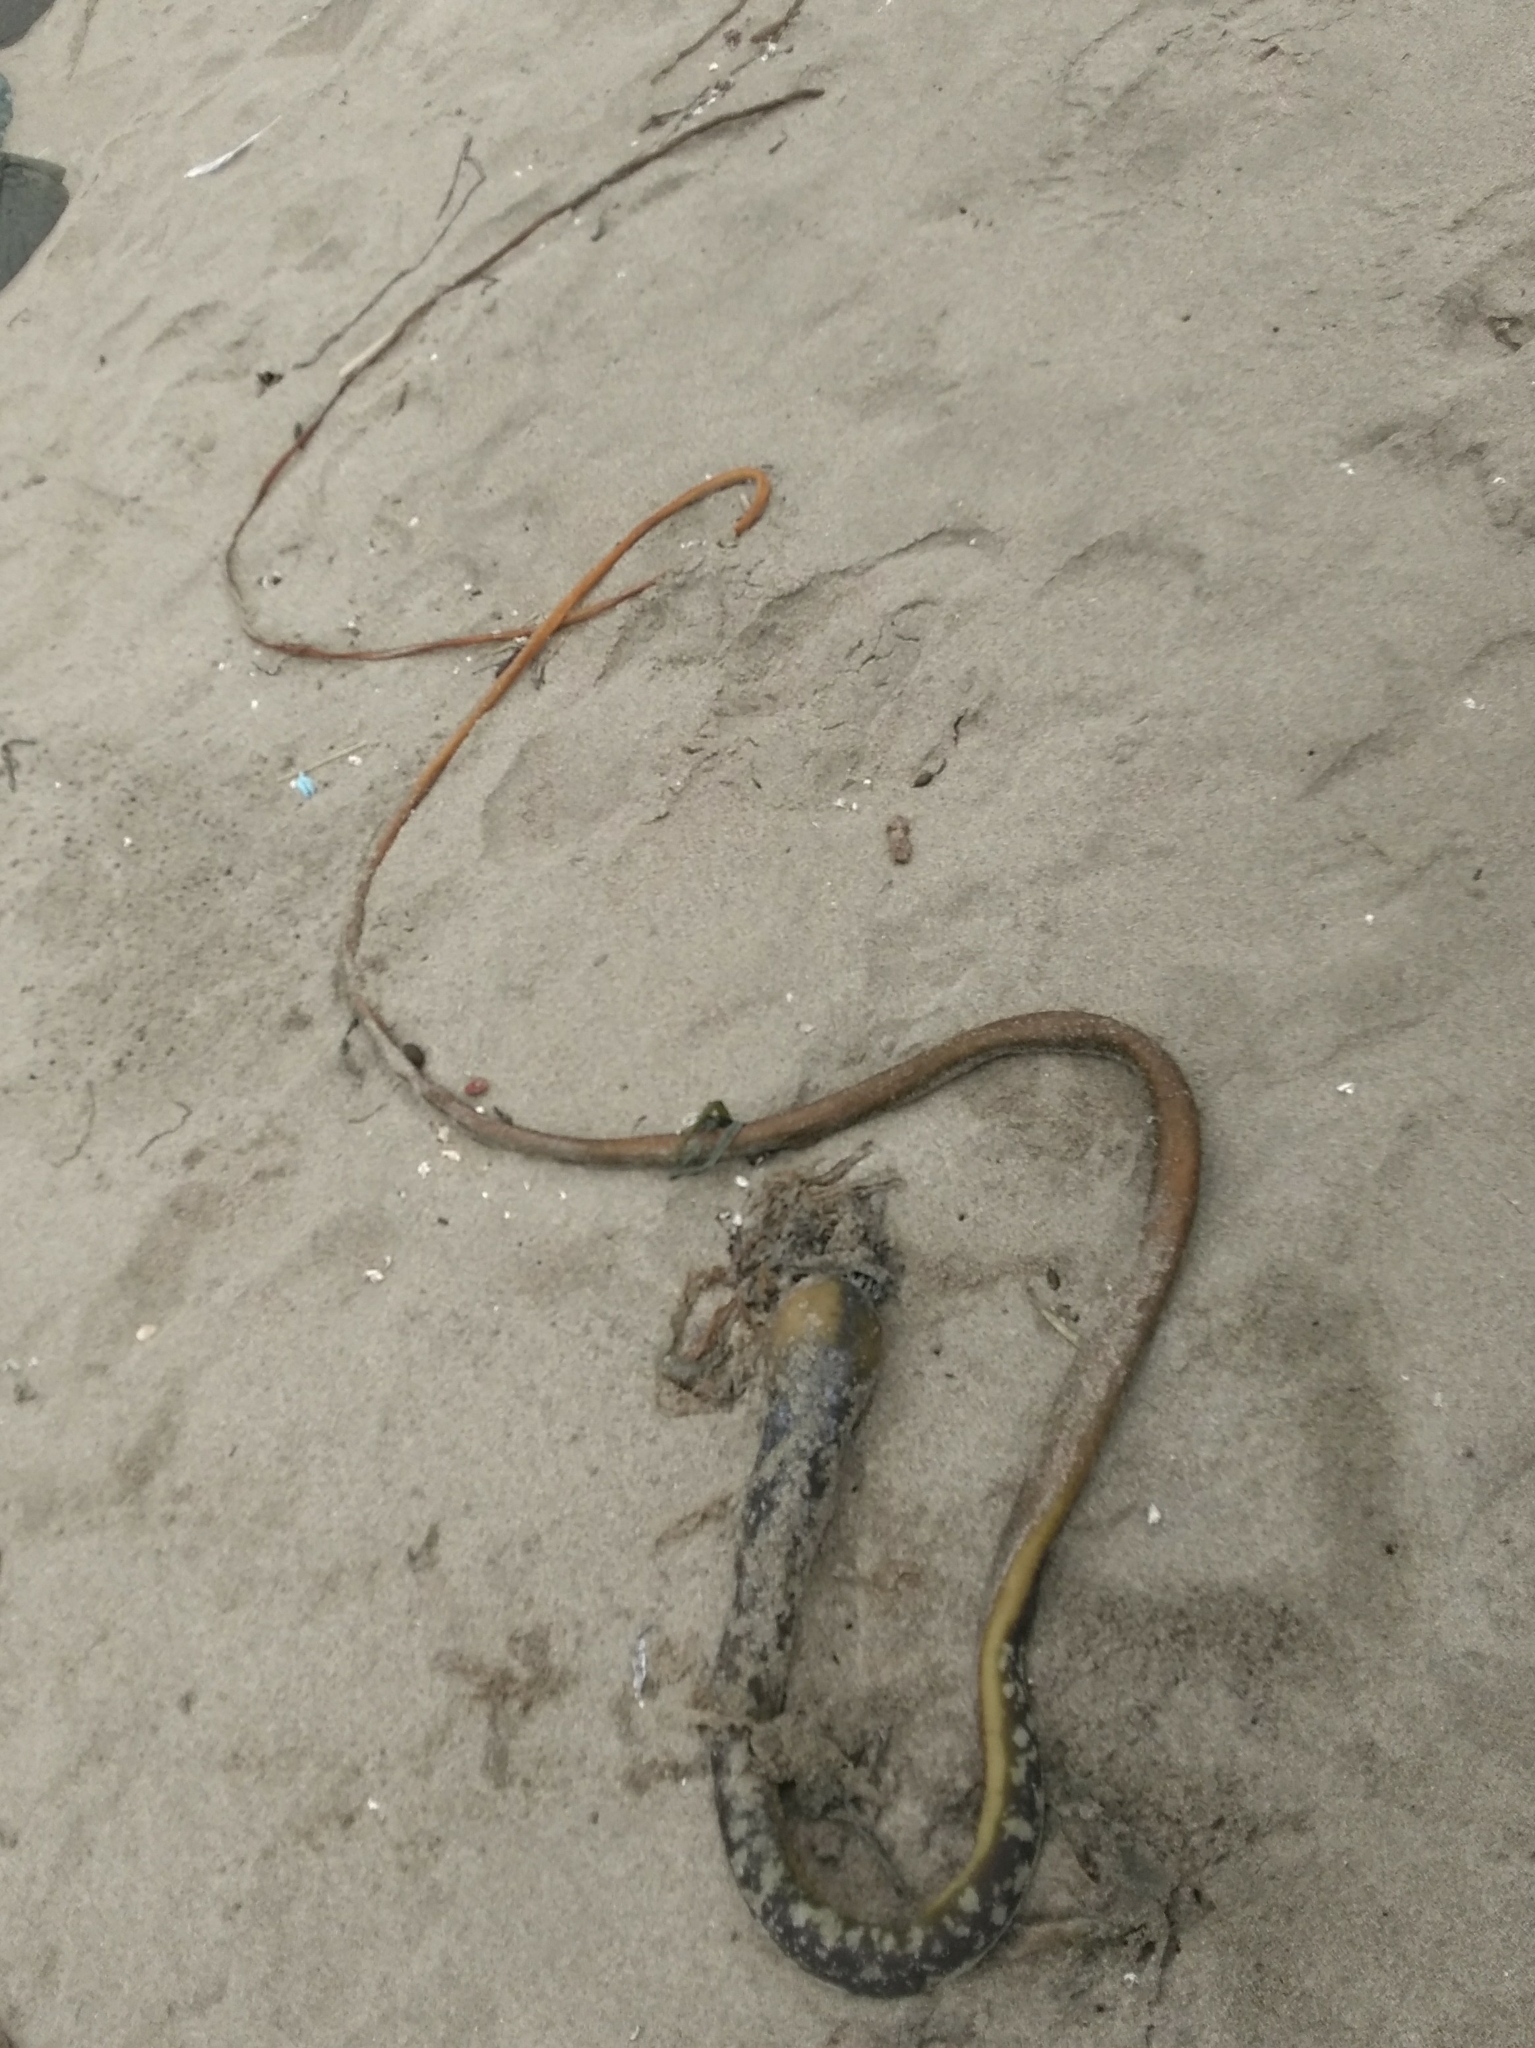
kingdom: Chromista
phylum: Ochrophyta
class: Phaeophyceae
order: Laminariales
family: Laminariaceae
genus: Nereocystis
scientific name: Nereocystis luetkeana
